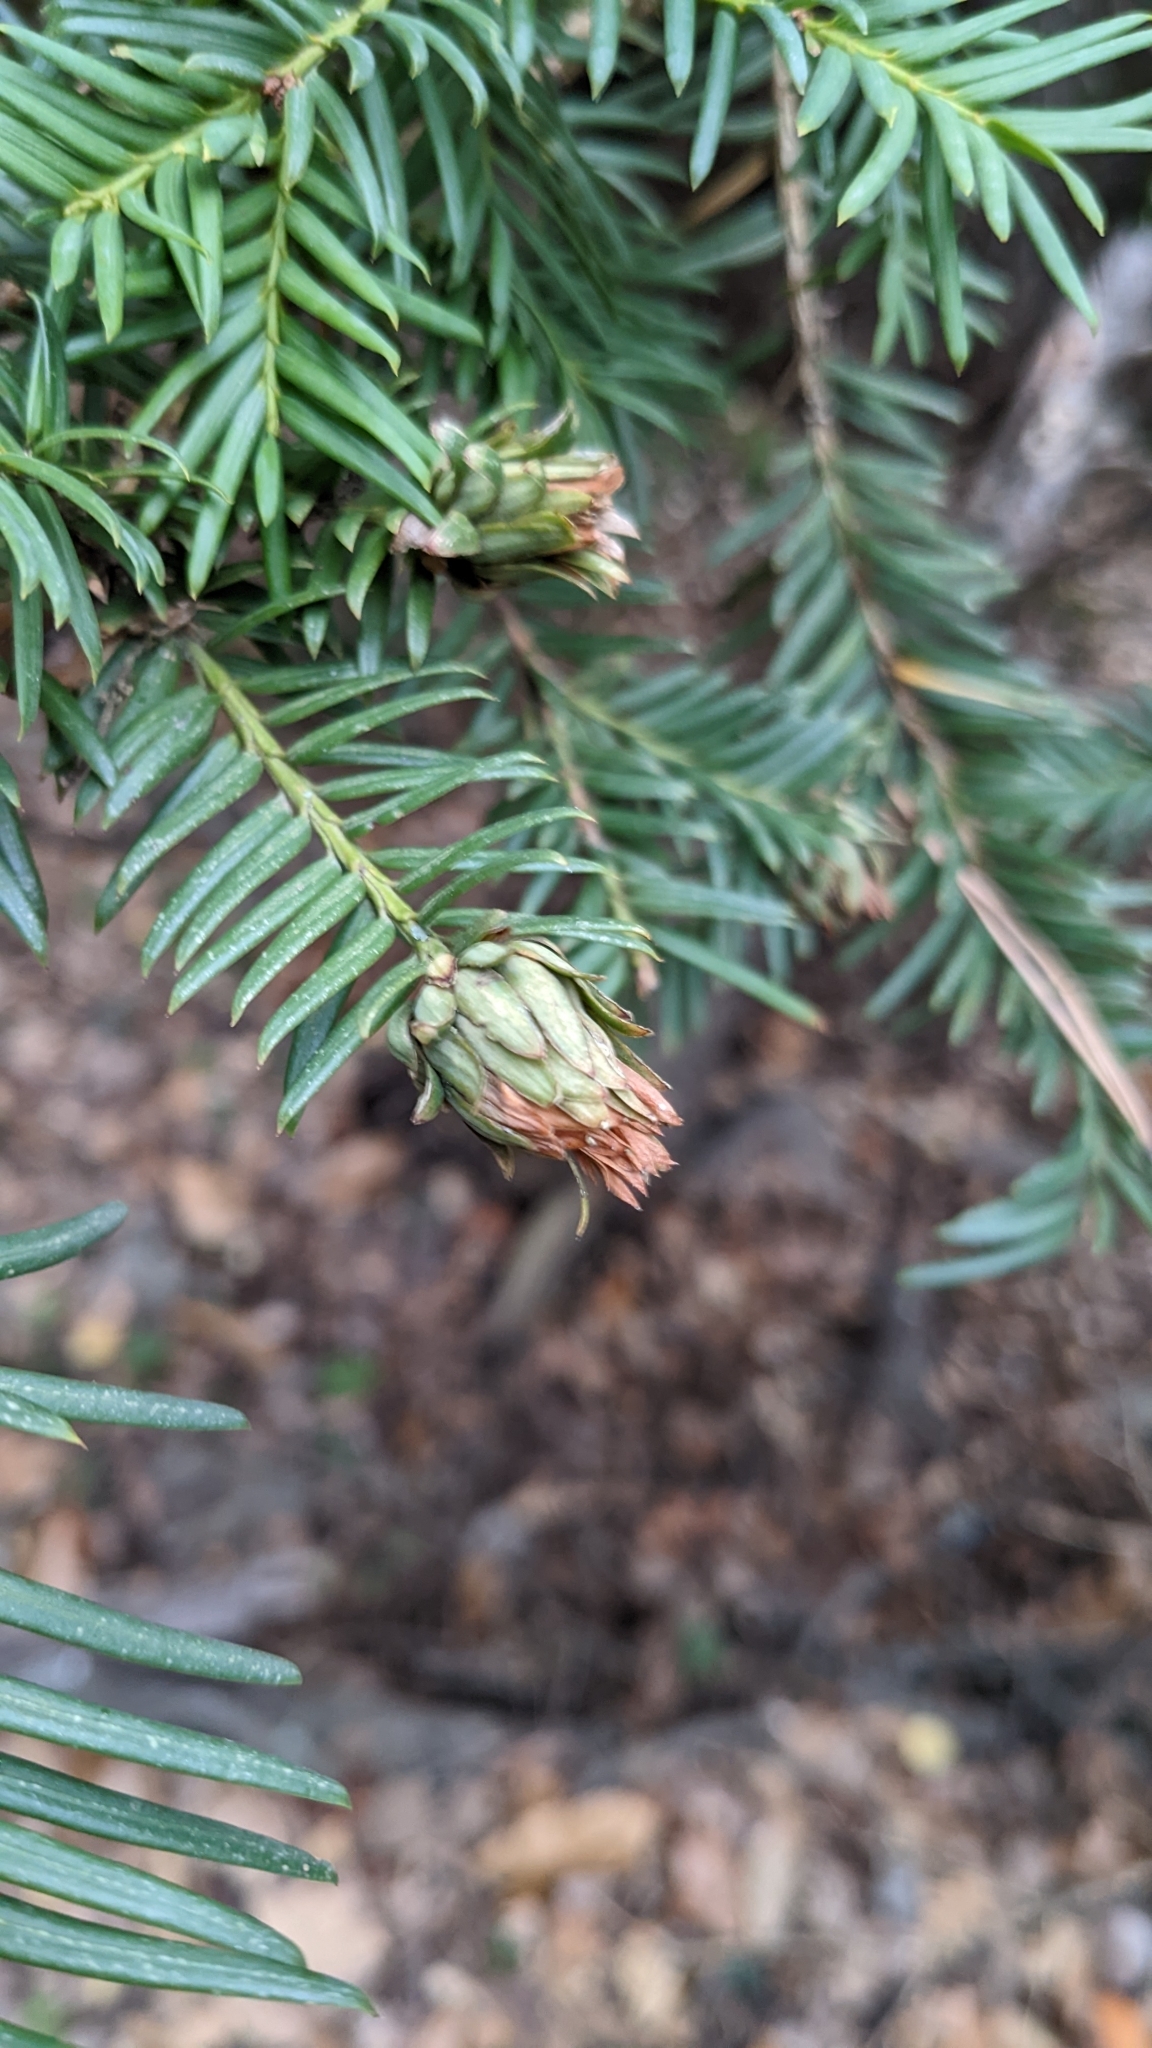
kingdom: Animalia
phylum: Arthropoda
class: Insecta
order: Diptera
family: Cecidomyiidae
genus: Taxomyia
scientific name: Taxomyia taxi
